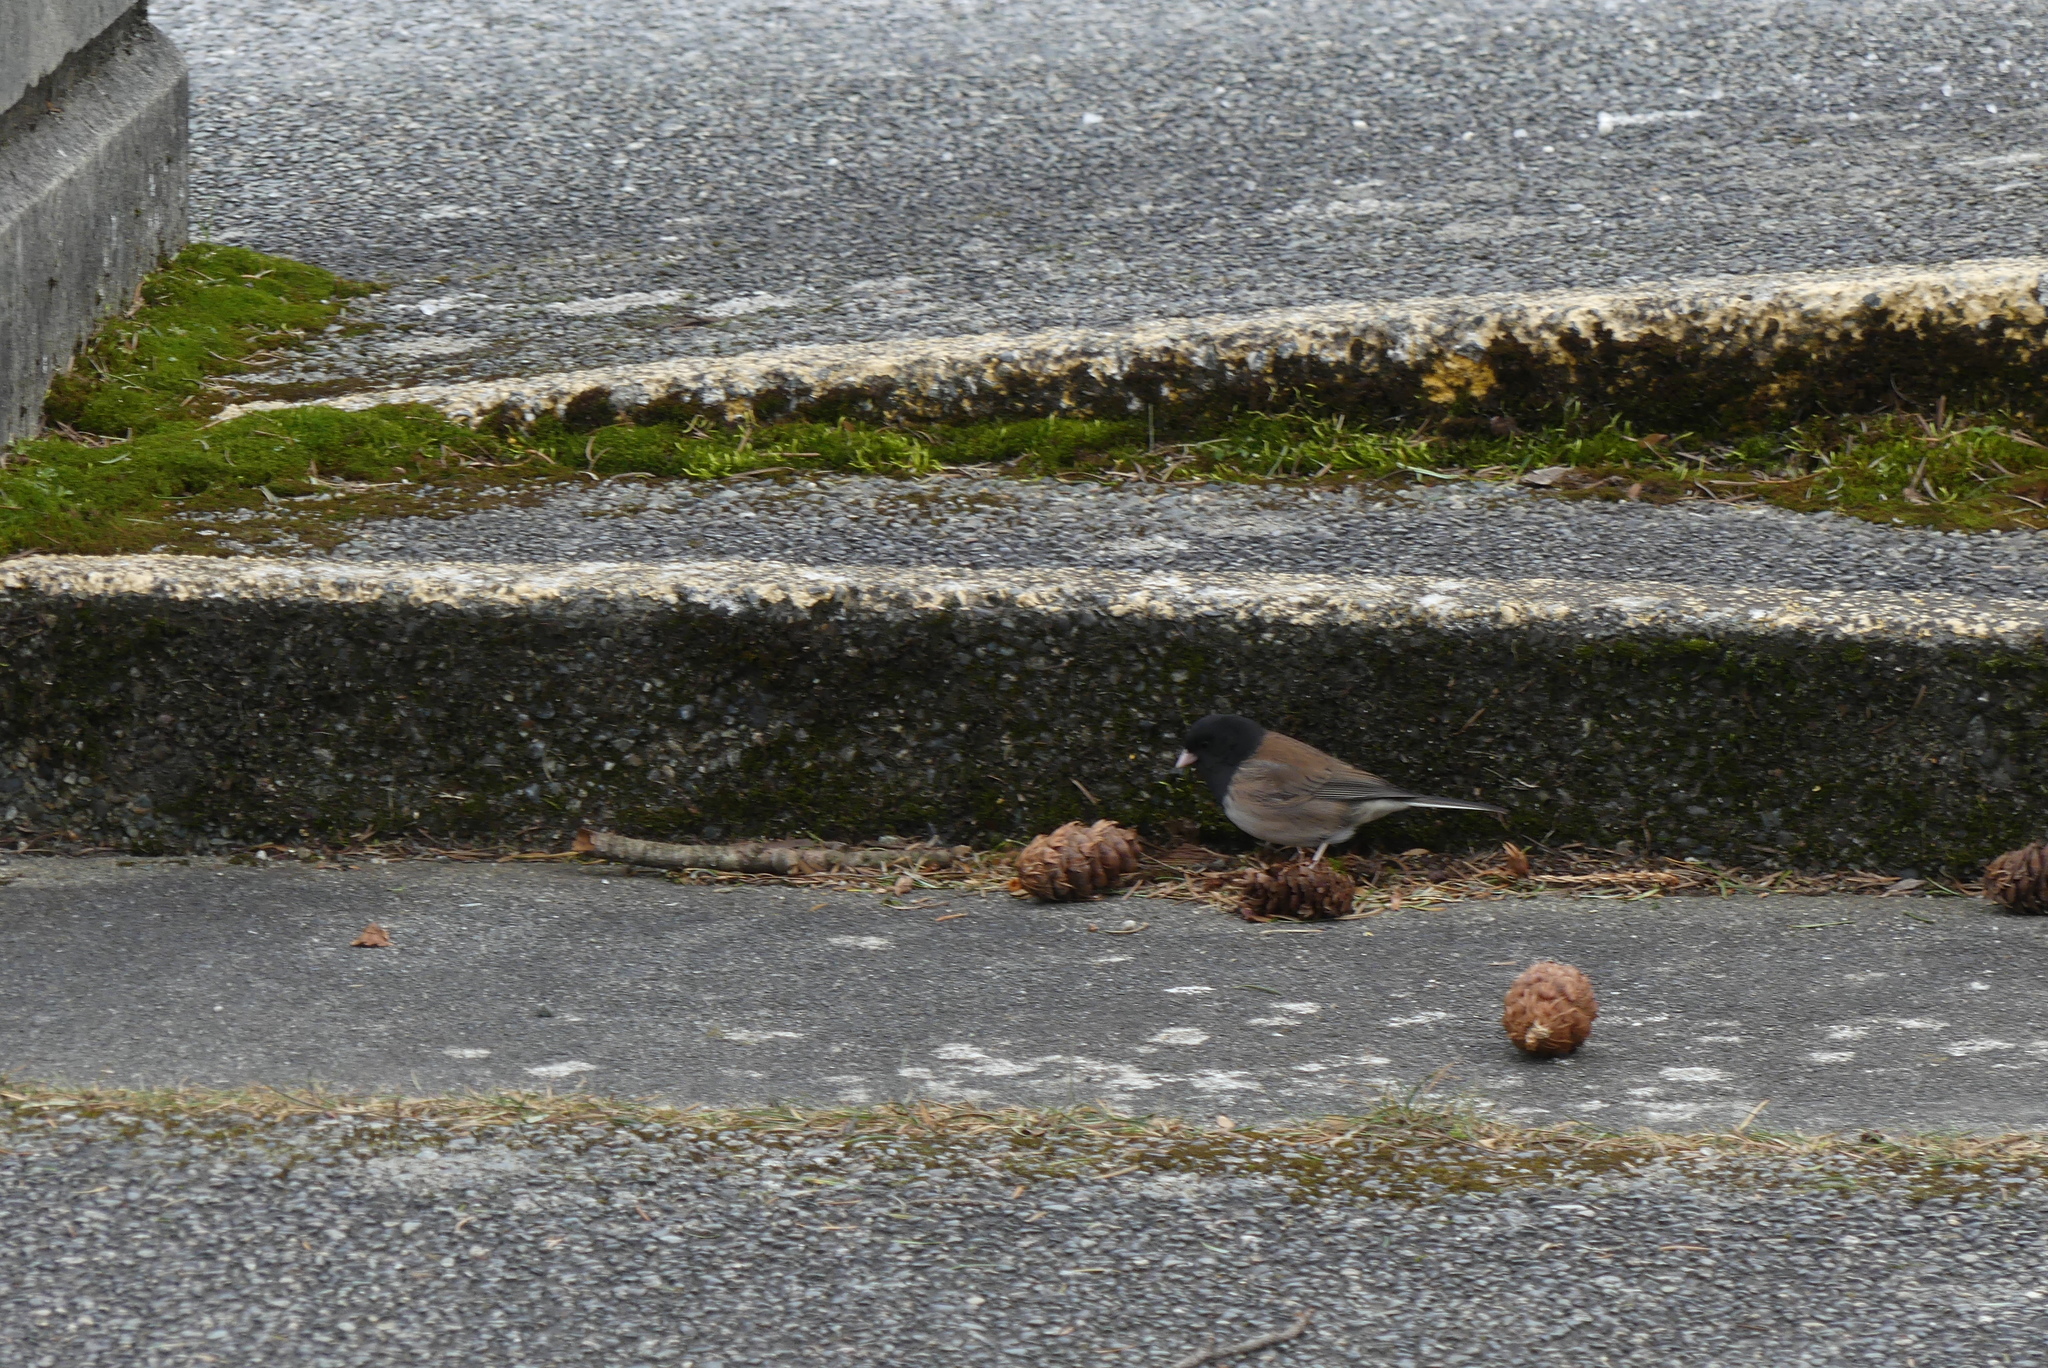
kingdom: Animalia
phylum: Chordata
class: Aves
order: Passeriformes
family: Passerellidae
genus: Junco
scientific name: Junco hyemalis
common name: Dark-eyed junco
